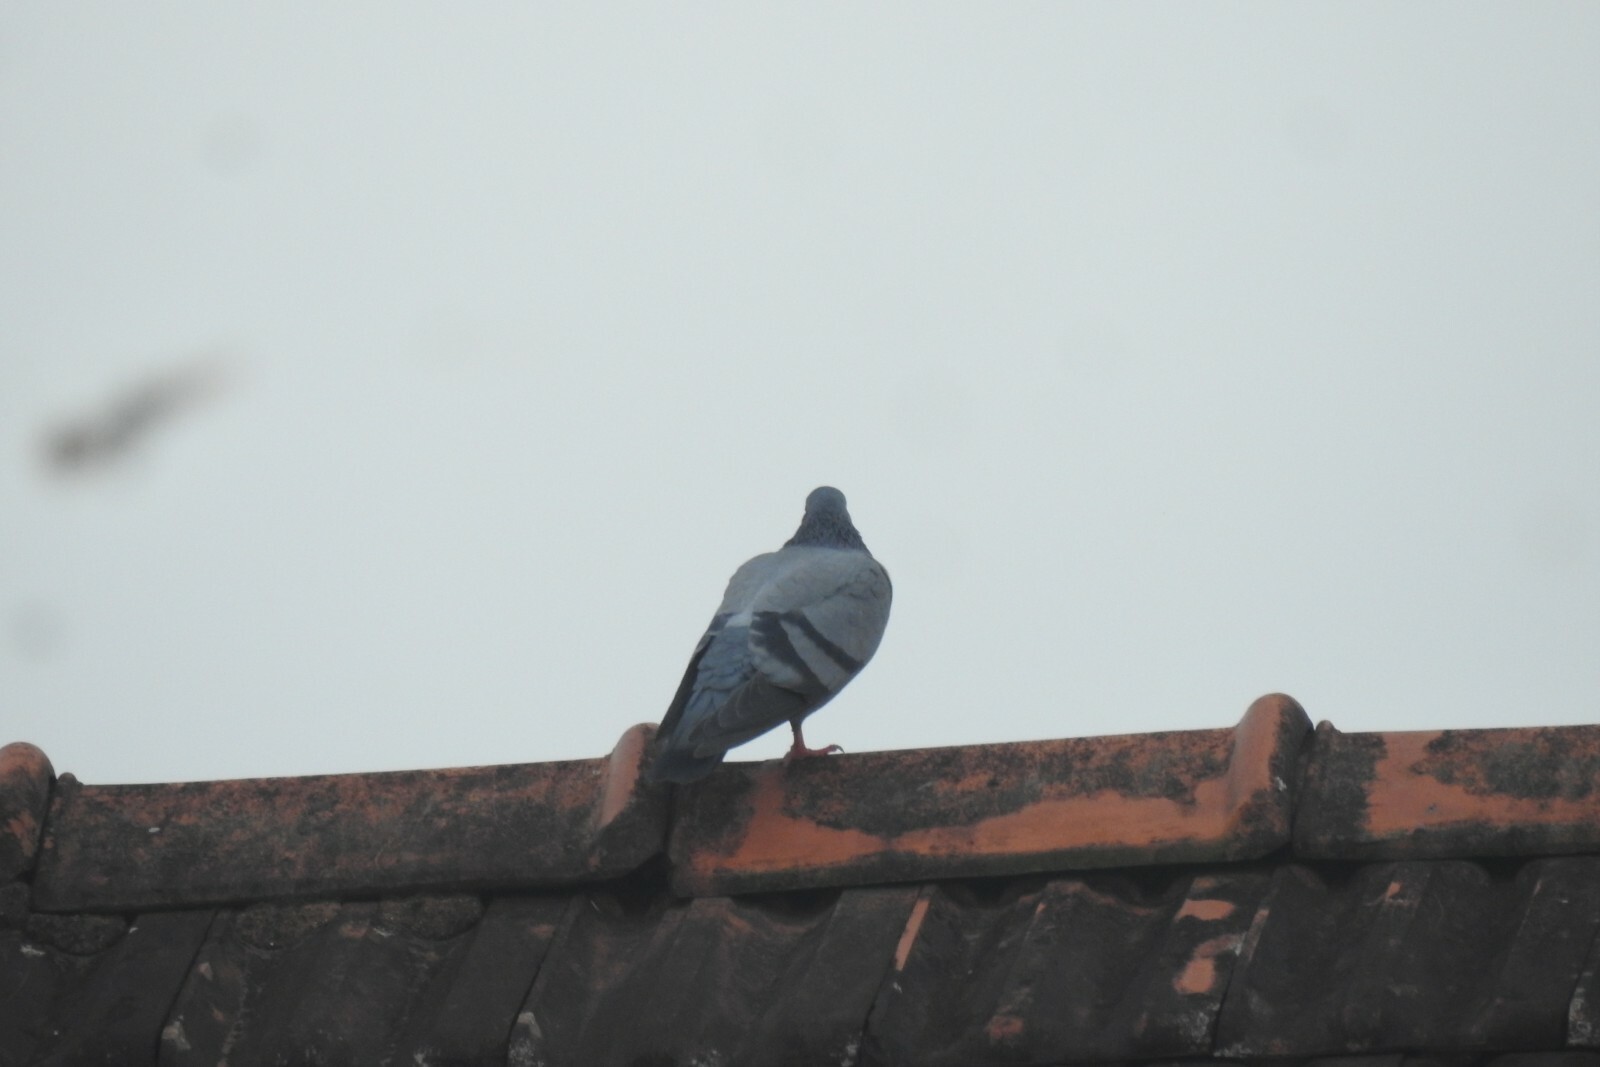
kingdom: Animalia
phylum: Chordata
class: Aves
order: Columbiformes
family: Columbidae
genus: Columba
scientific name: Columba livia
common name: Rock pigeon
